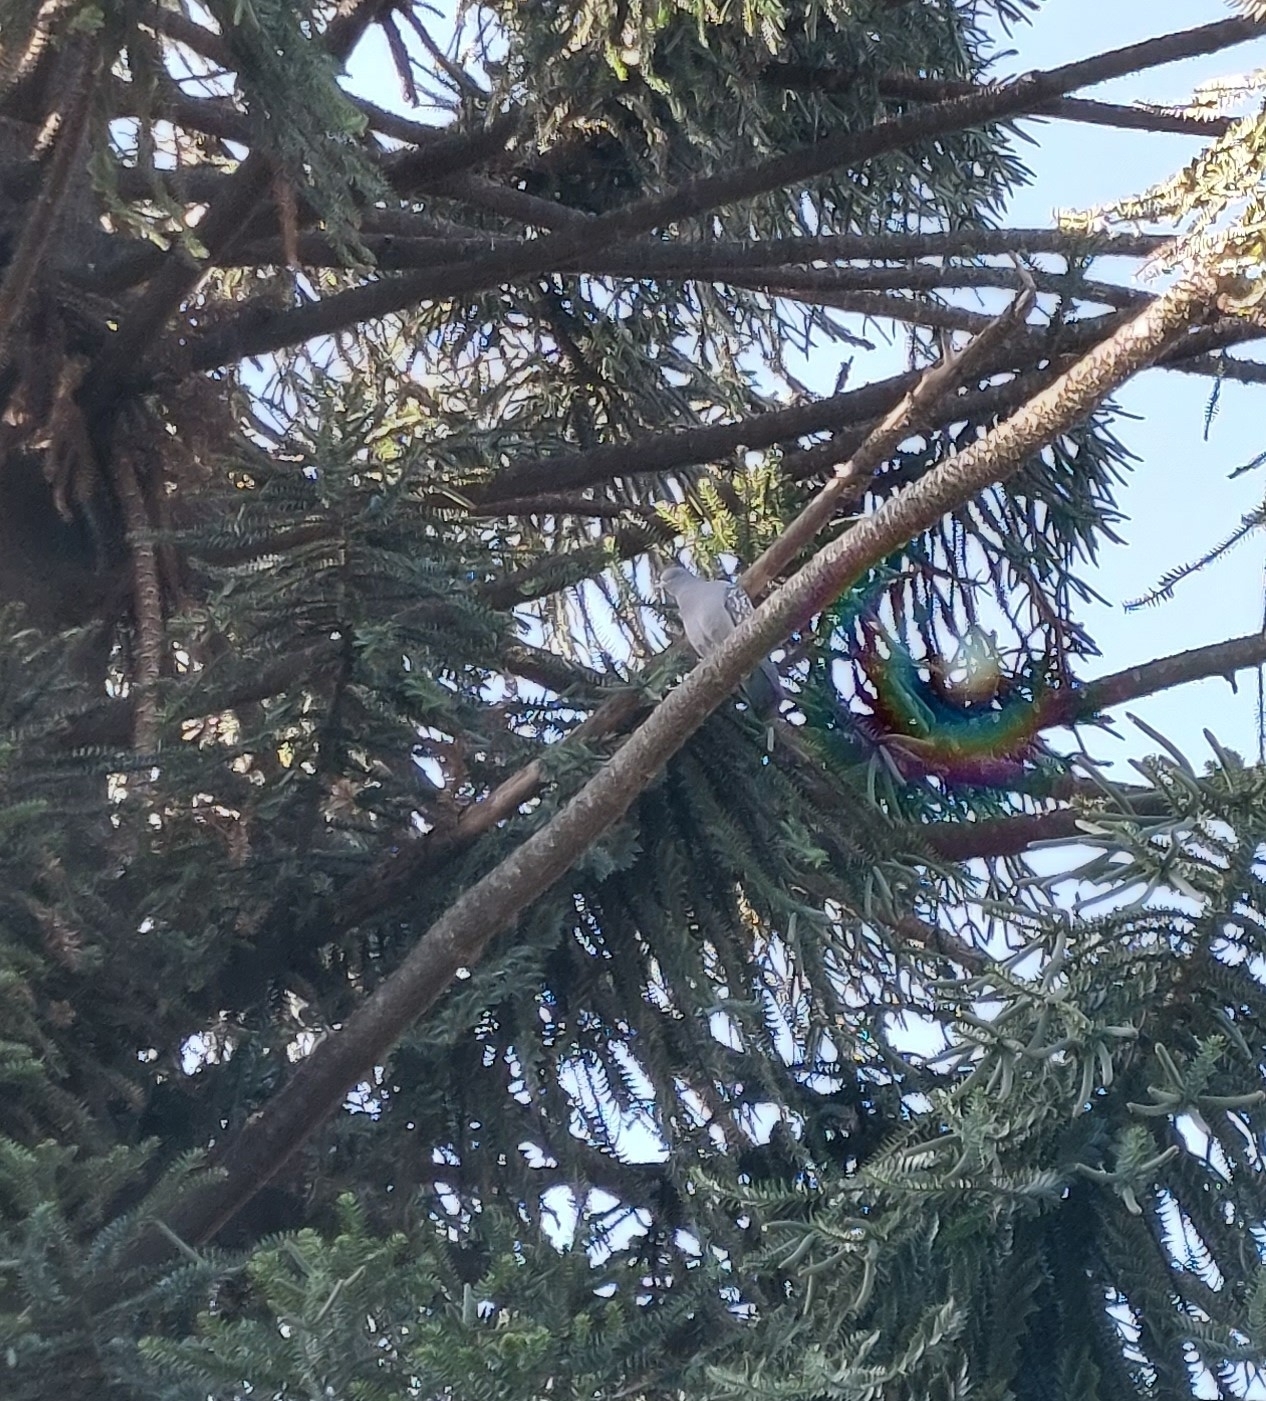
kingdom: Animalia
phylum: Chordata
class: Aves
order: Columbiformes
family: Columbidae
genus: Patagioenas
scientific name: Patagioenas maculosa
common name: Spot-winged pigeon
